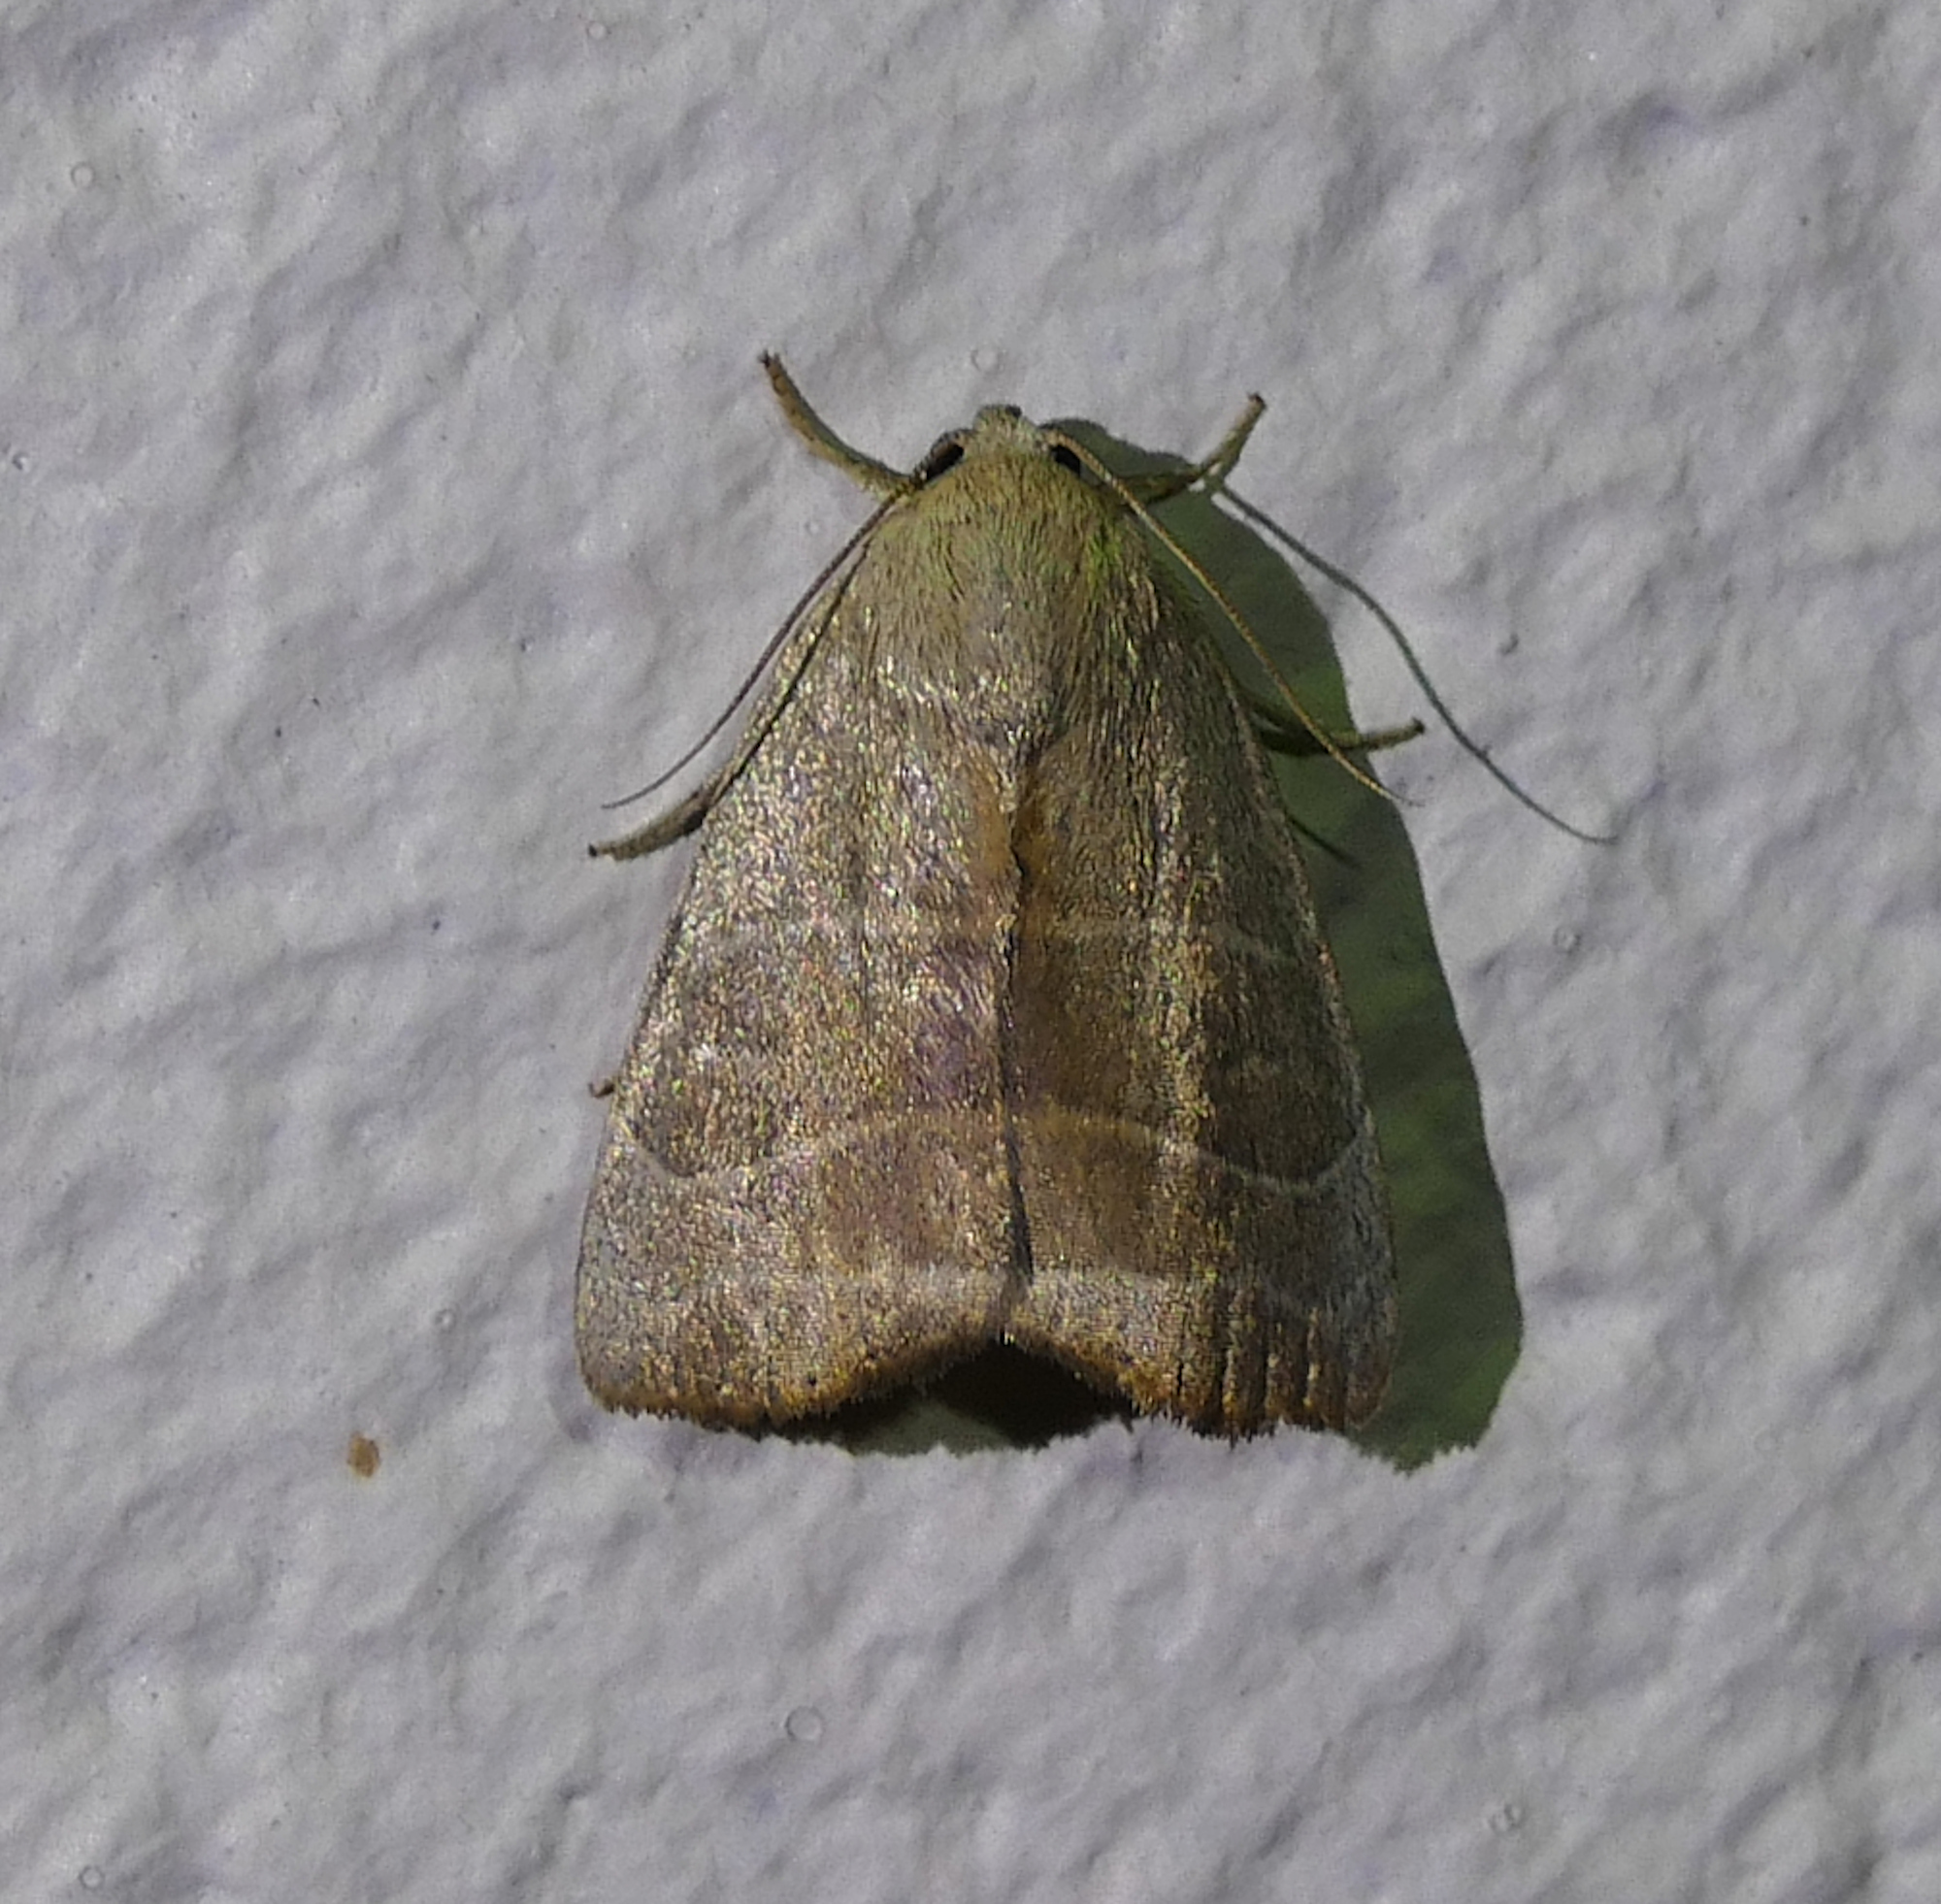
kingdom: Animalia
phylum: Arthropoda
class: Insecta
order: Lepidoptera
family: Noctuidae
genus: Bagisara
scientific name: Bagisara rectifascia
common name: Straight lined mallow moth
